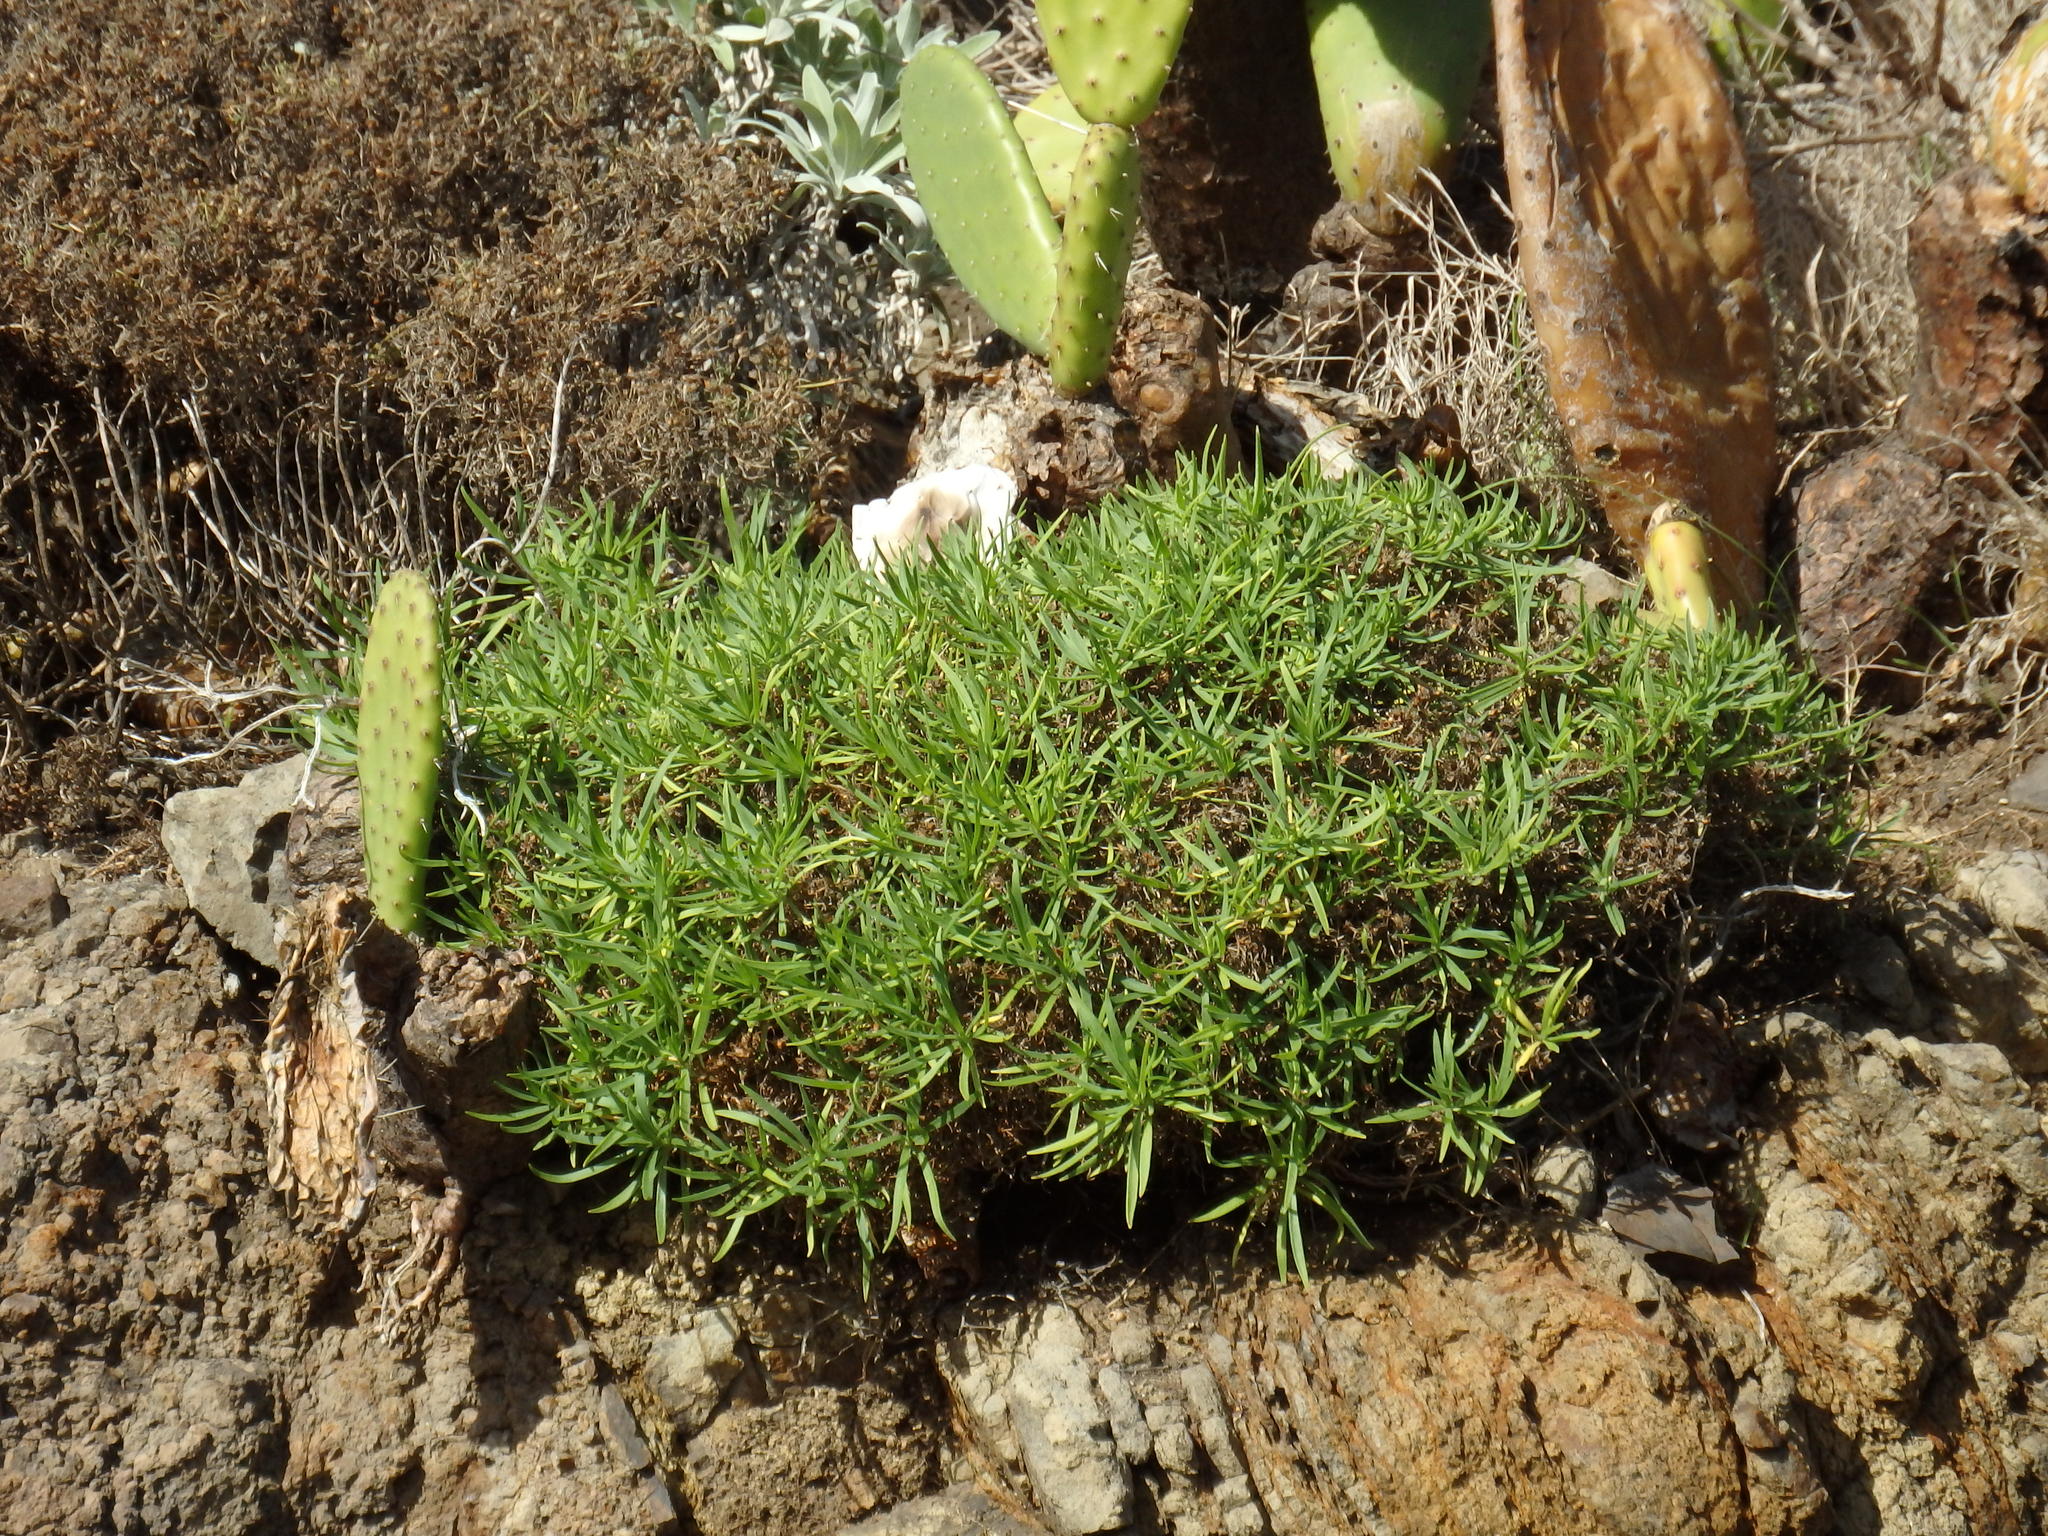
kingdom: Plantae
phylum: Tracheophyta
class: Magnoliopsida
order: Lamiales
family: Plantaginaceae
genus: Plantago
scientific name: Plantago arborescens
